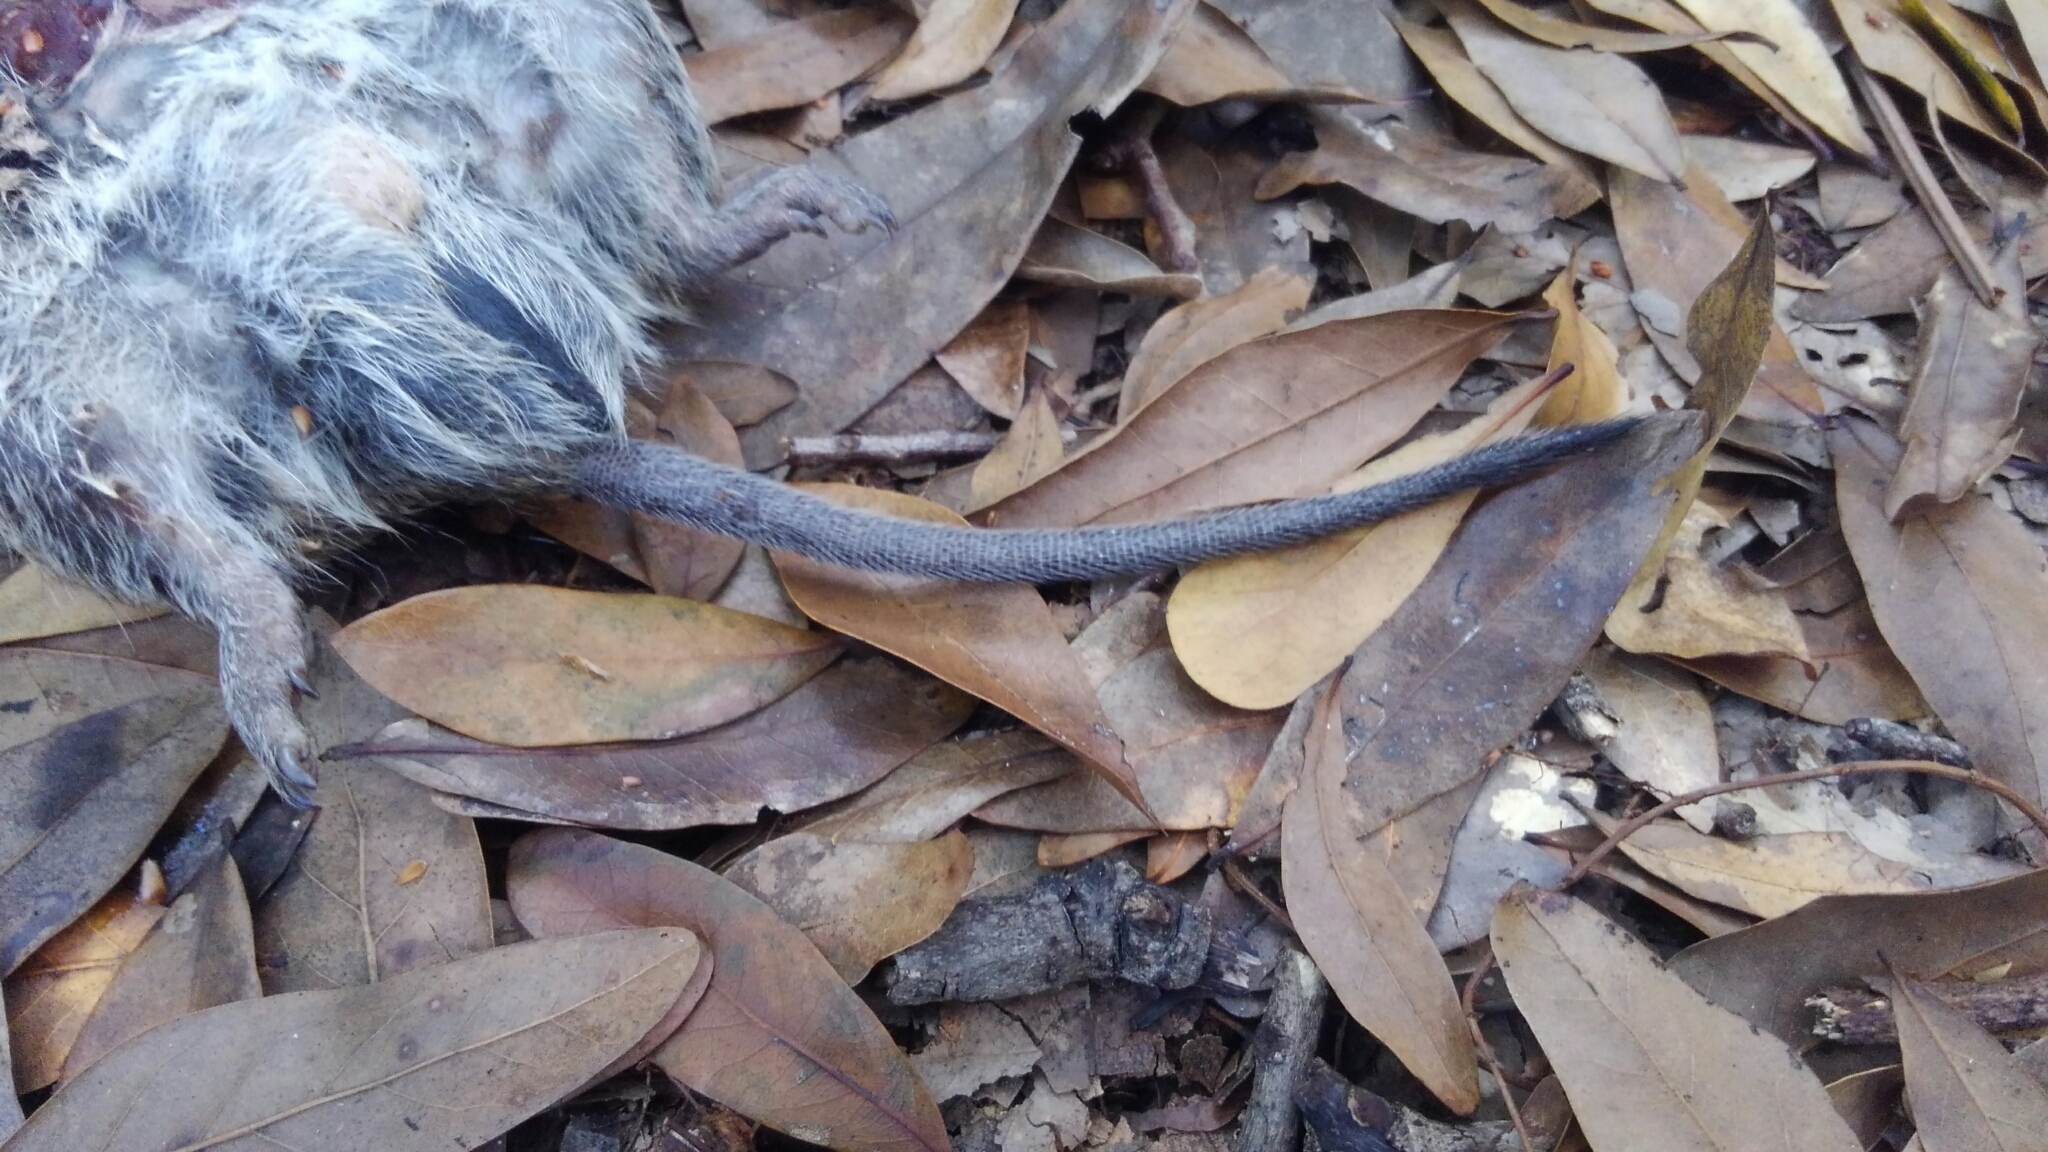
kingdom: Animalia
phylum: Chordata
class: Mammalia
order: Rodentia
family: Cricetidae
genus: Sigmodon
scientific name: Sigmodon hispidus
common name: Hispid cotton rat
